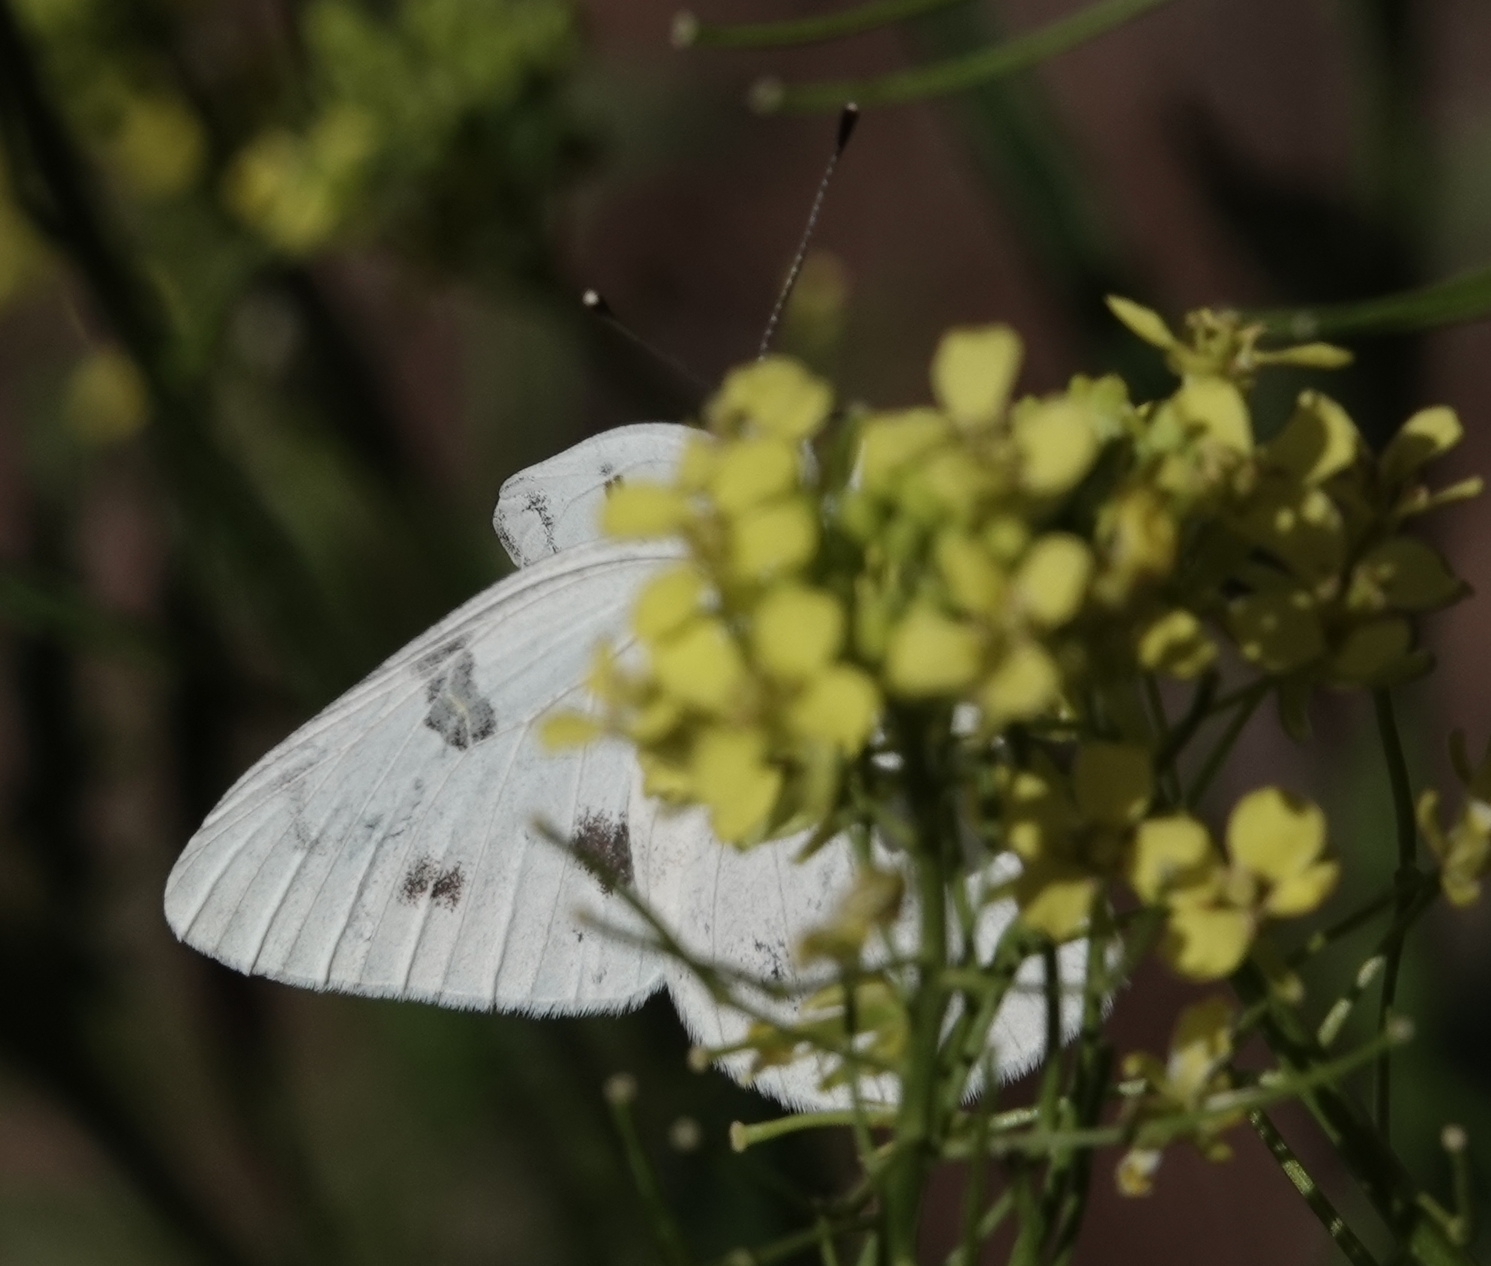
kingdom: Animalia
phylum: Arthropoda
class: Insecta
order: Lepidoptera
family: Pieridae
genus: Pontia
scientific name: Pontia protodice
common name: Checkered white
